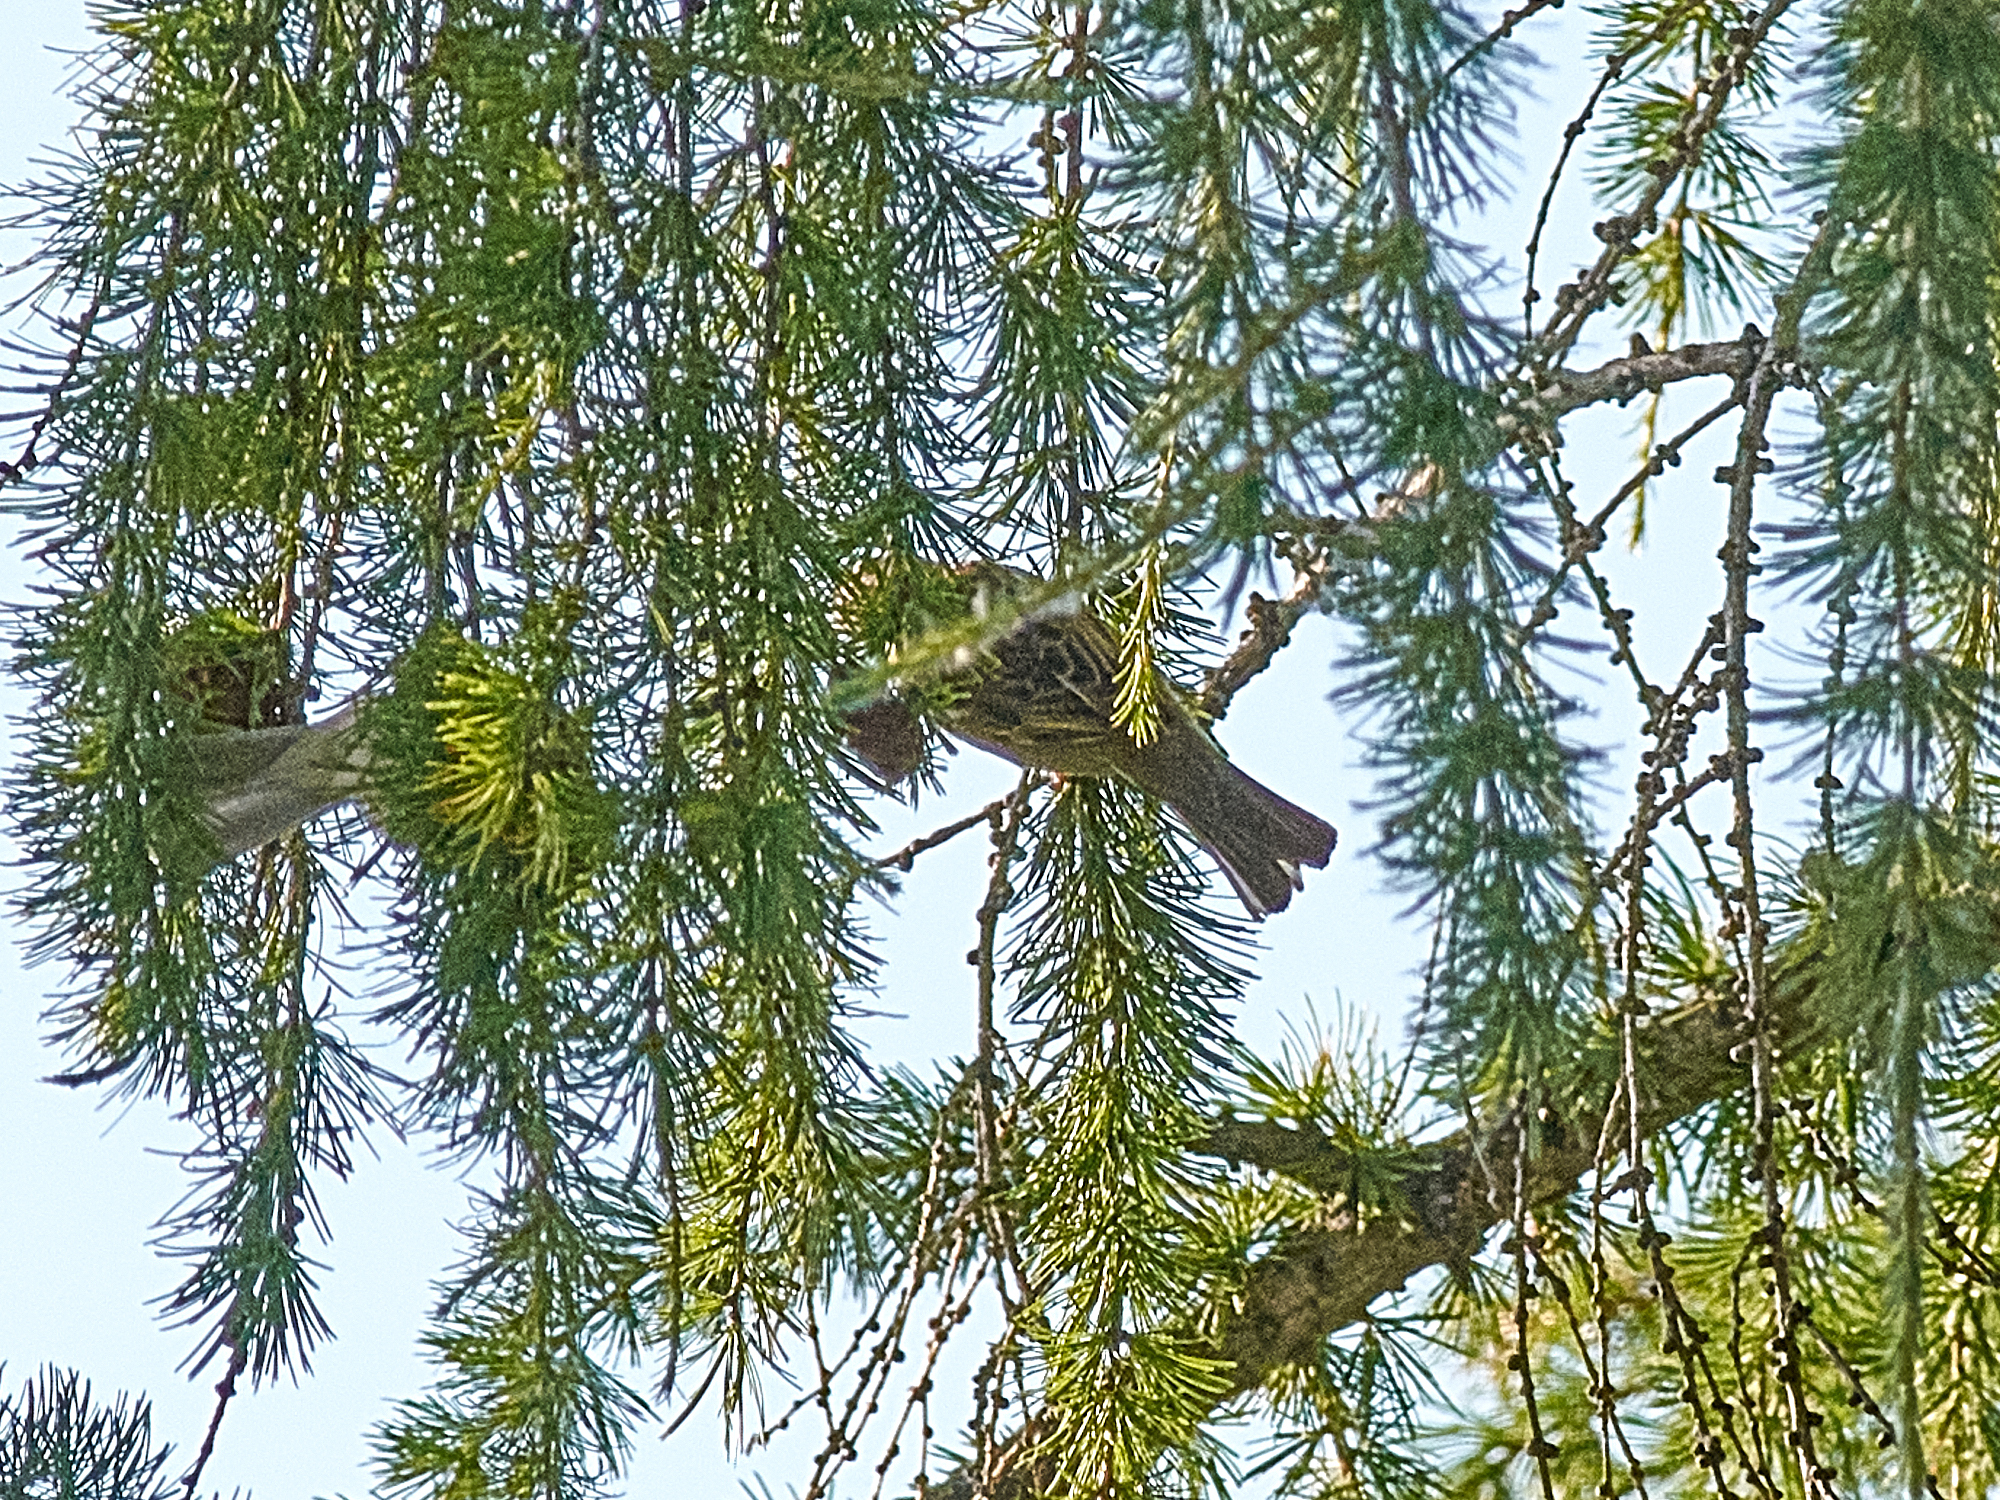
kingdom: Animalia
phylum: Chordata
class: Aves
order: Passeriformes
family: Passeridae
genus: Passer
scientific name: Passer montanus
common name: Eurasian tree sparrow
